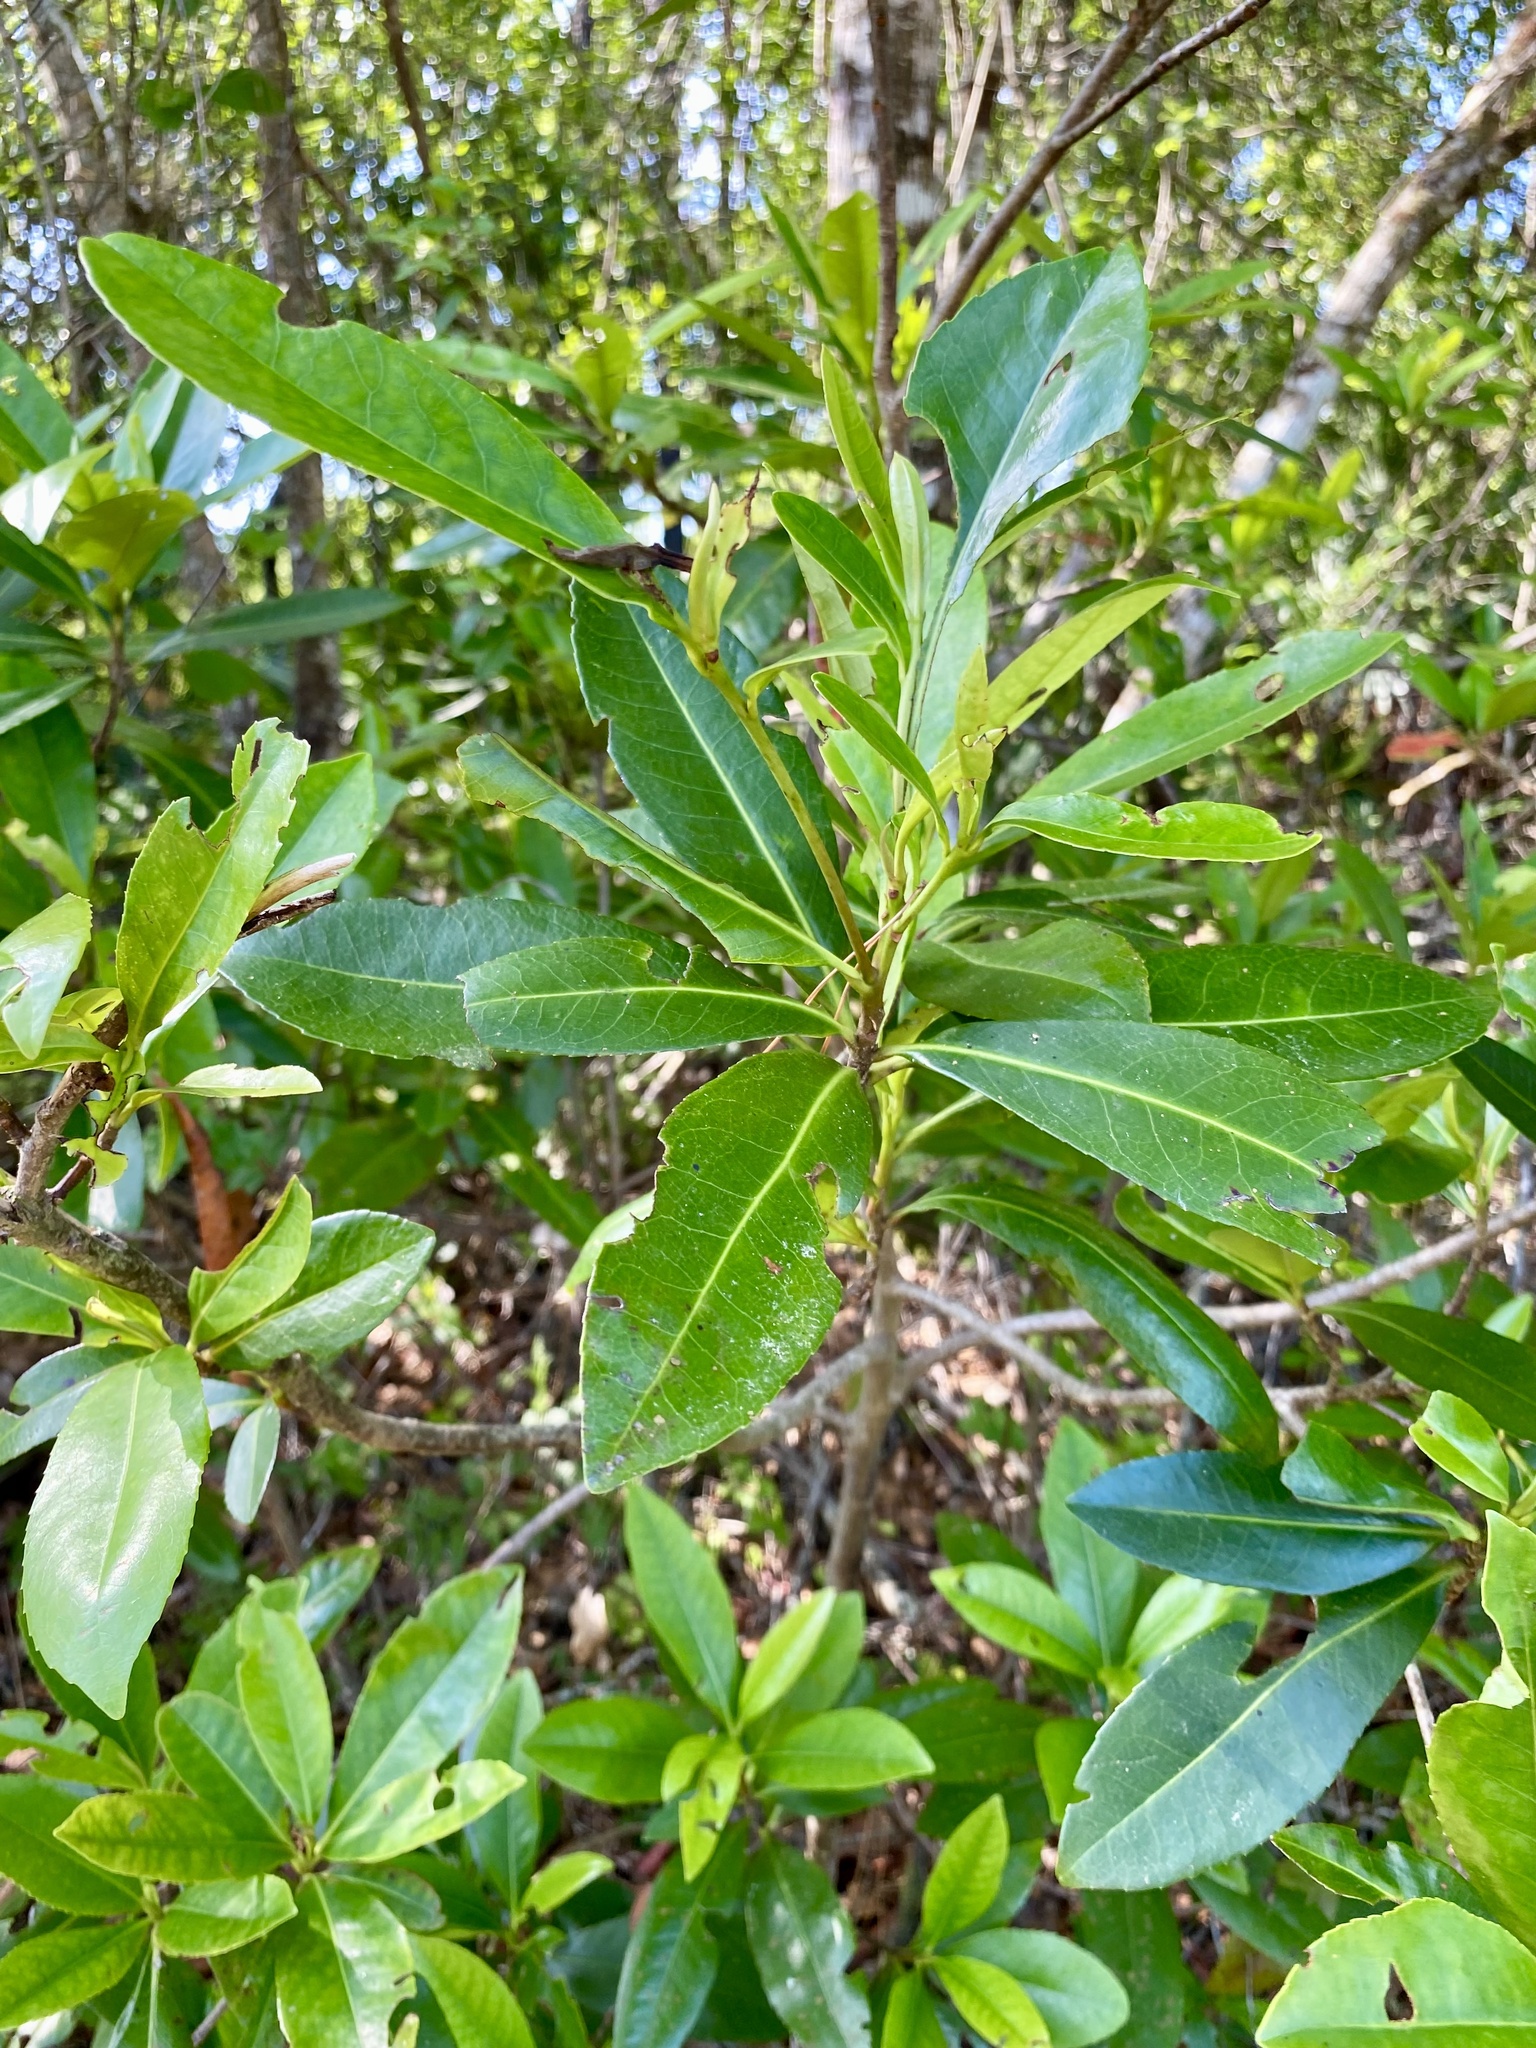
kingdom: Plantae
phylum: Tracheophyta
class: Magnoliopsida
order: Ericales
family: Theaceae
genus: Gordonia
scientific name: Gordonia lasianthus
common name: Loblolly bay
